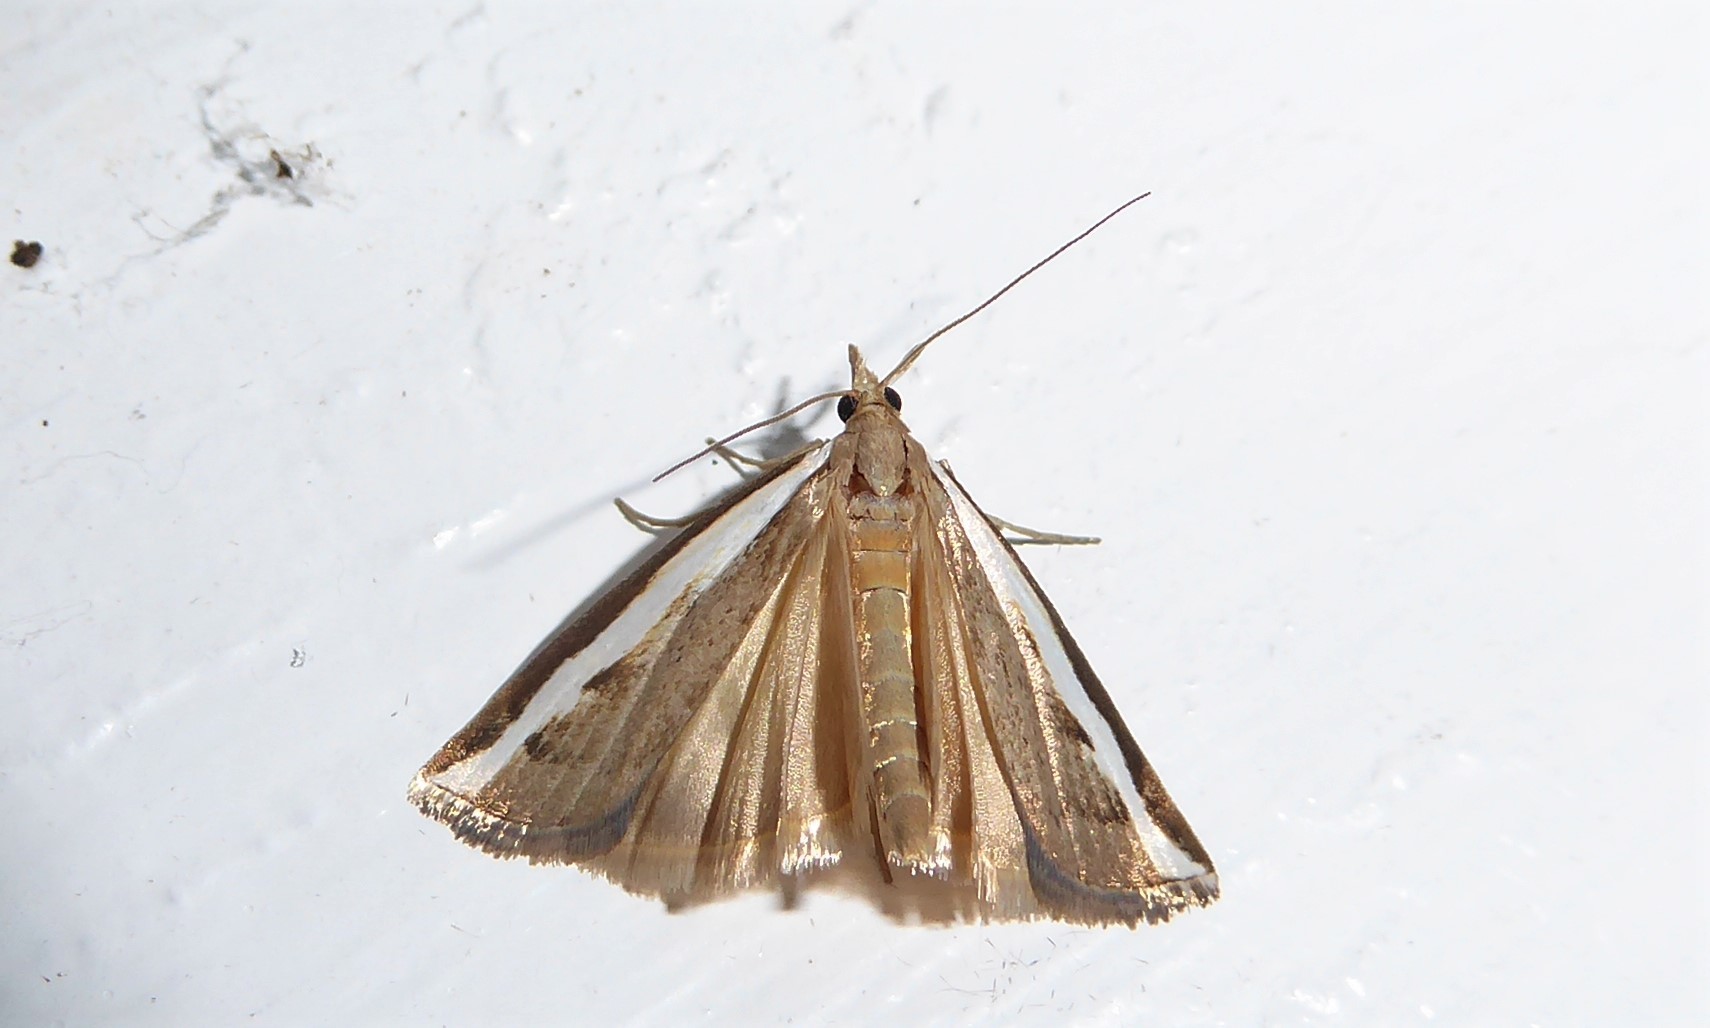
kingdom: Animalia
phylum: Arthropoda
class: Insecta
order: Lepidoptera
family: Crambidae
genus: Orocrambus
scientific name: Orocrambus flexuosellus
